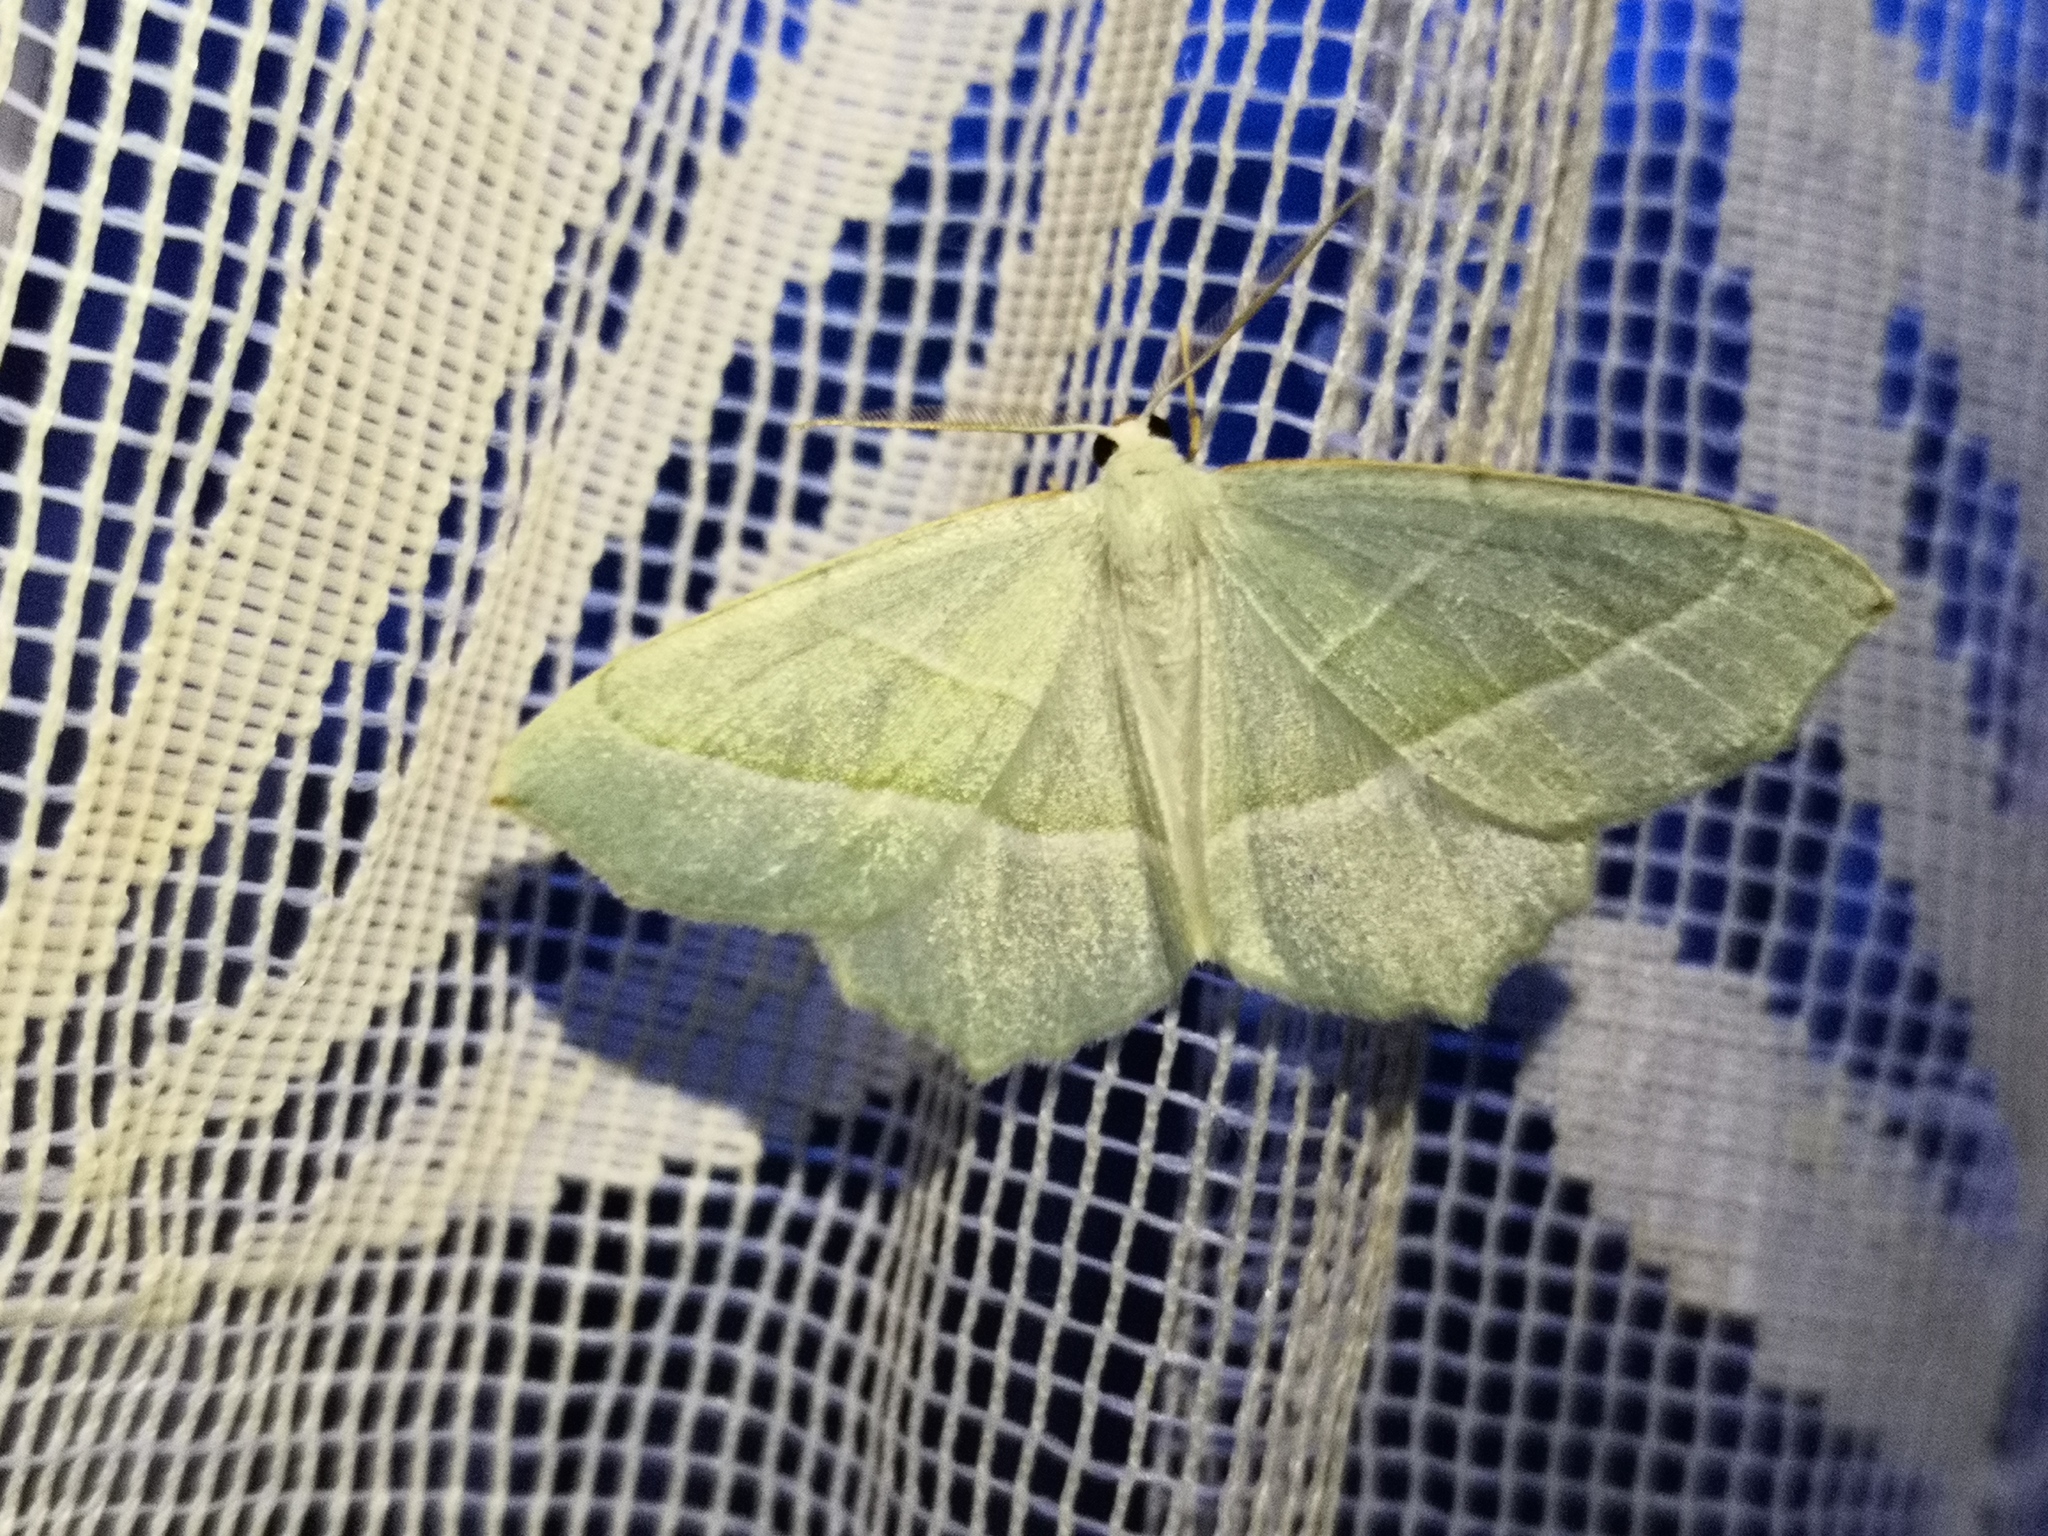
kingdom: Animalia
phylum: Arthropoda
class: Insecta
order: Lepidoptera
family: Geometridae
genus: Campaea
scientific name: Campaea margaritaria
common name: Light emerald
